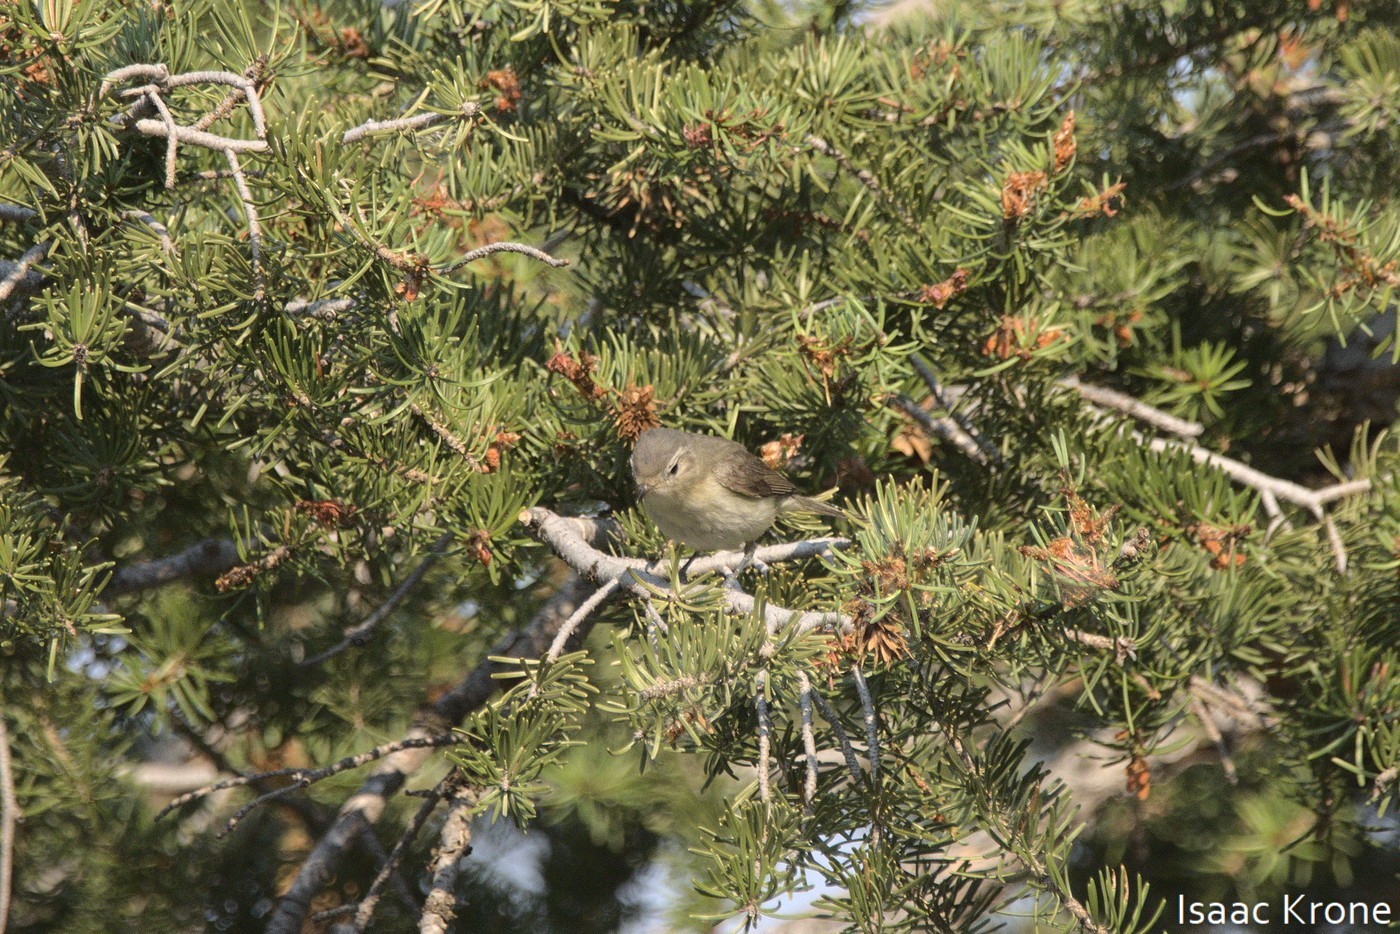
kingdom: Animalia
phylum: Chordata
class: Aves
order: Passeriformes
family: Vireonidae
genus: Vireo
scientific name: Vireo gilvus
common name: Warbling vireo
